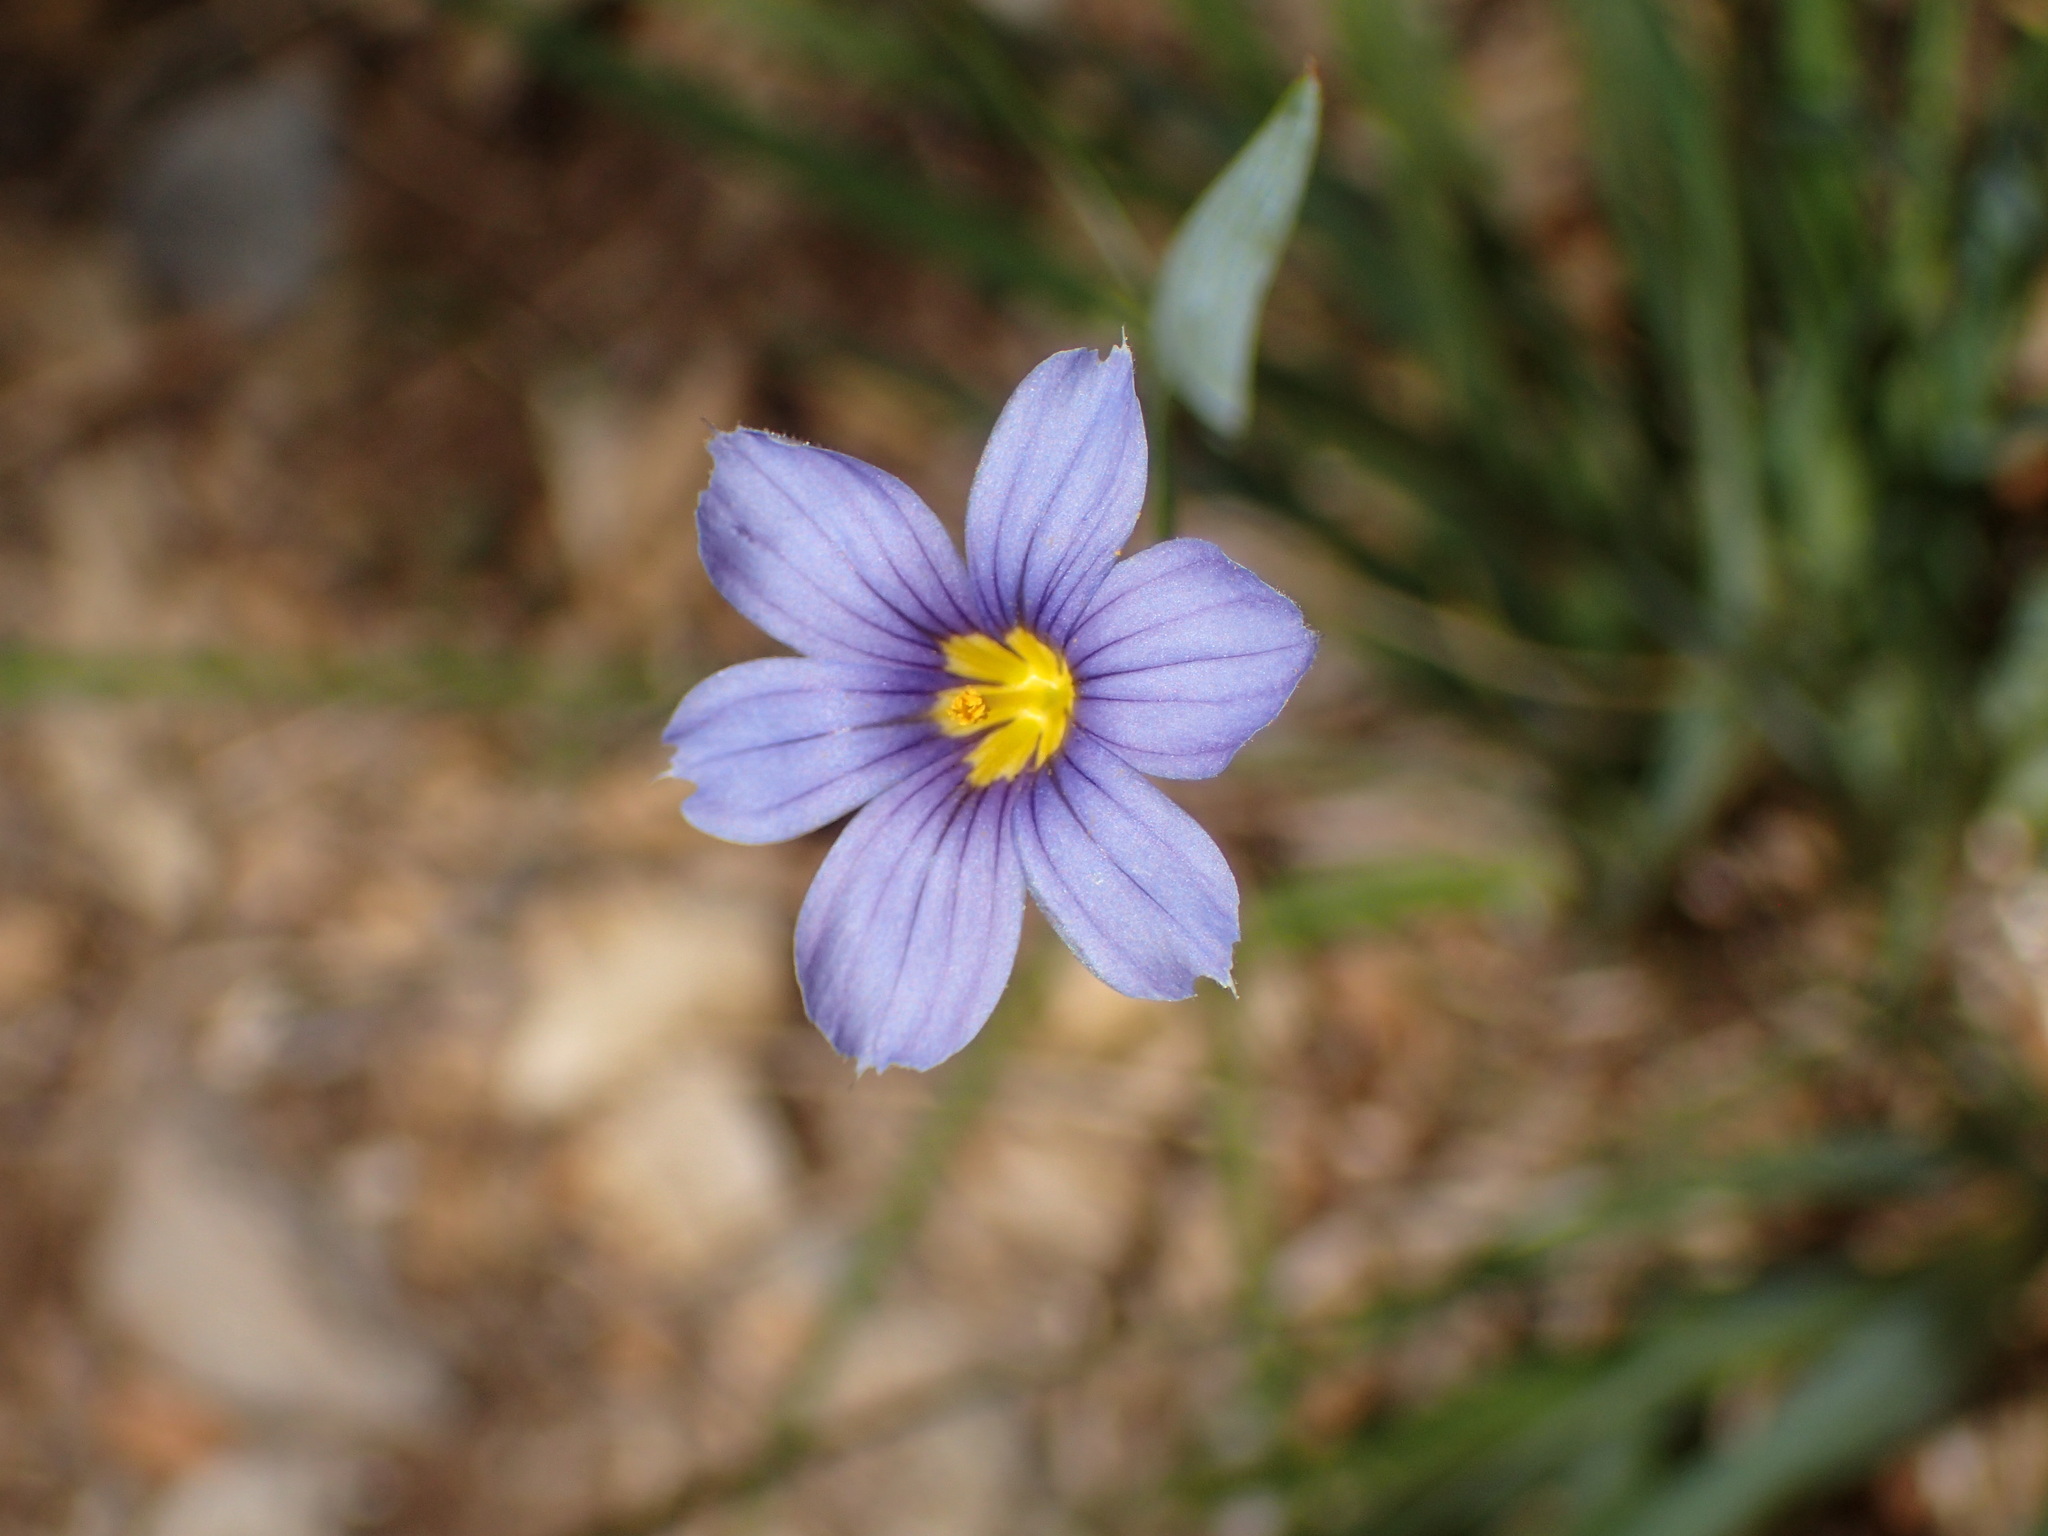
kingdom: Plantae
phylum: Tracheophyta
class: Liliopsida
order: Asparagales
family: Iridaceae
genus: Sisyrinchium
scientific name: Sisyrinchium bellum
